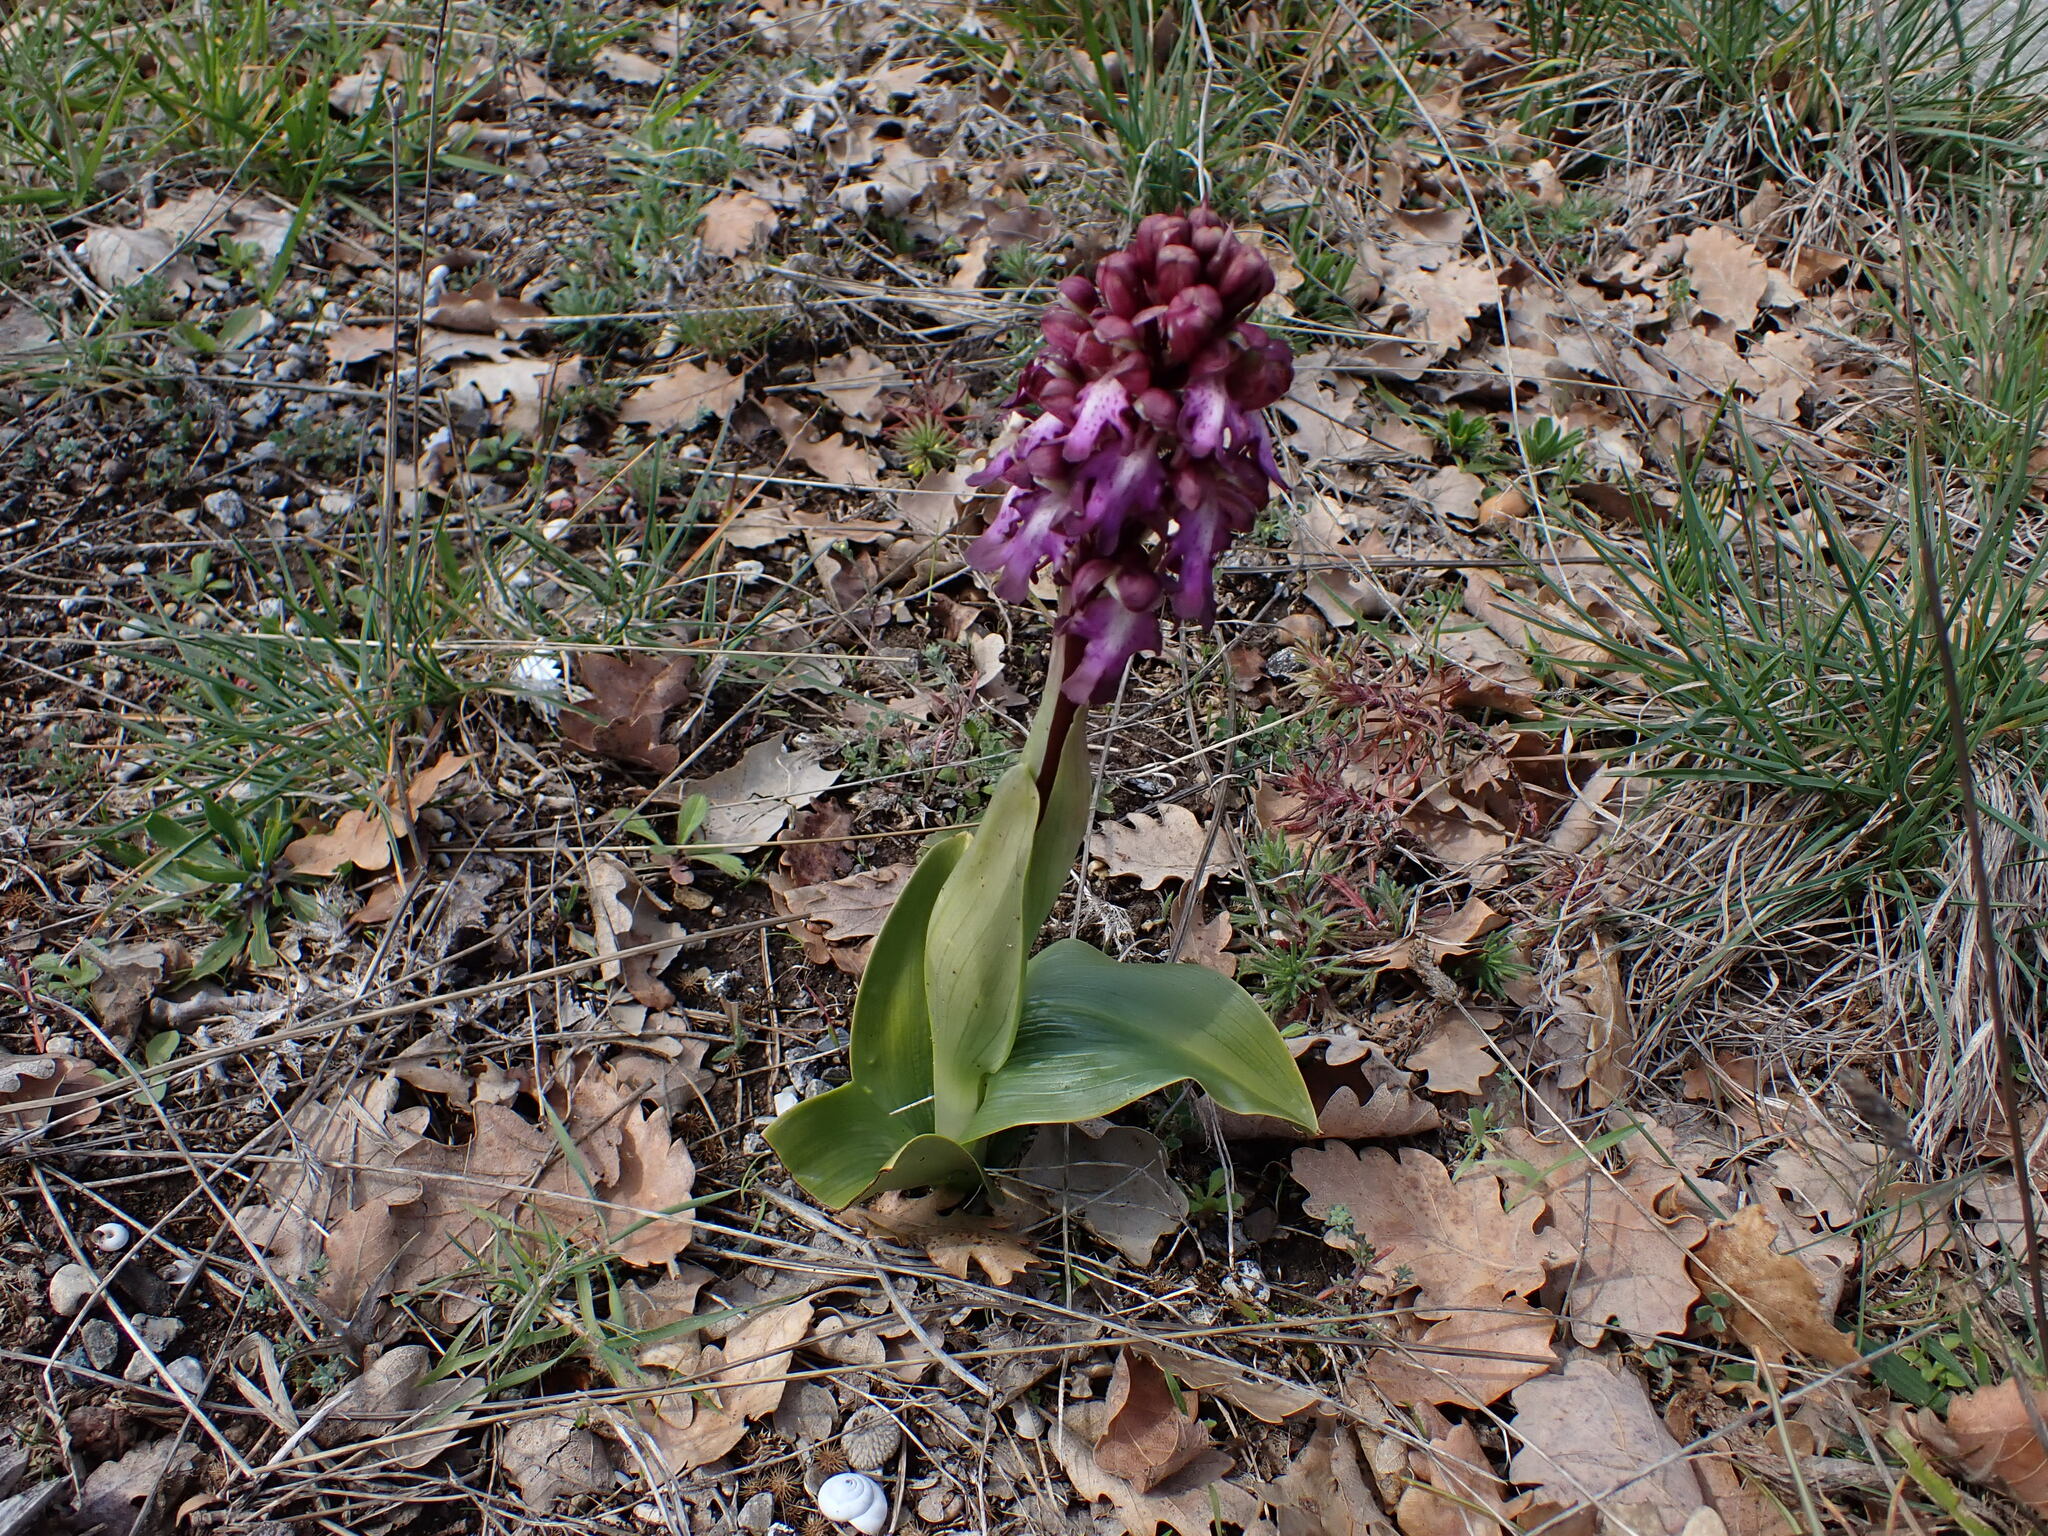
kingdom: Plantae
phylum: Tracheophyta
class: Liliopsida
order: Asparagales
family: Orchidaceae
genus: Himantoglossum
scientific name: Himantoglossum robertianum
